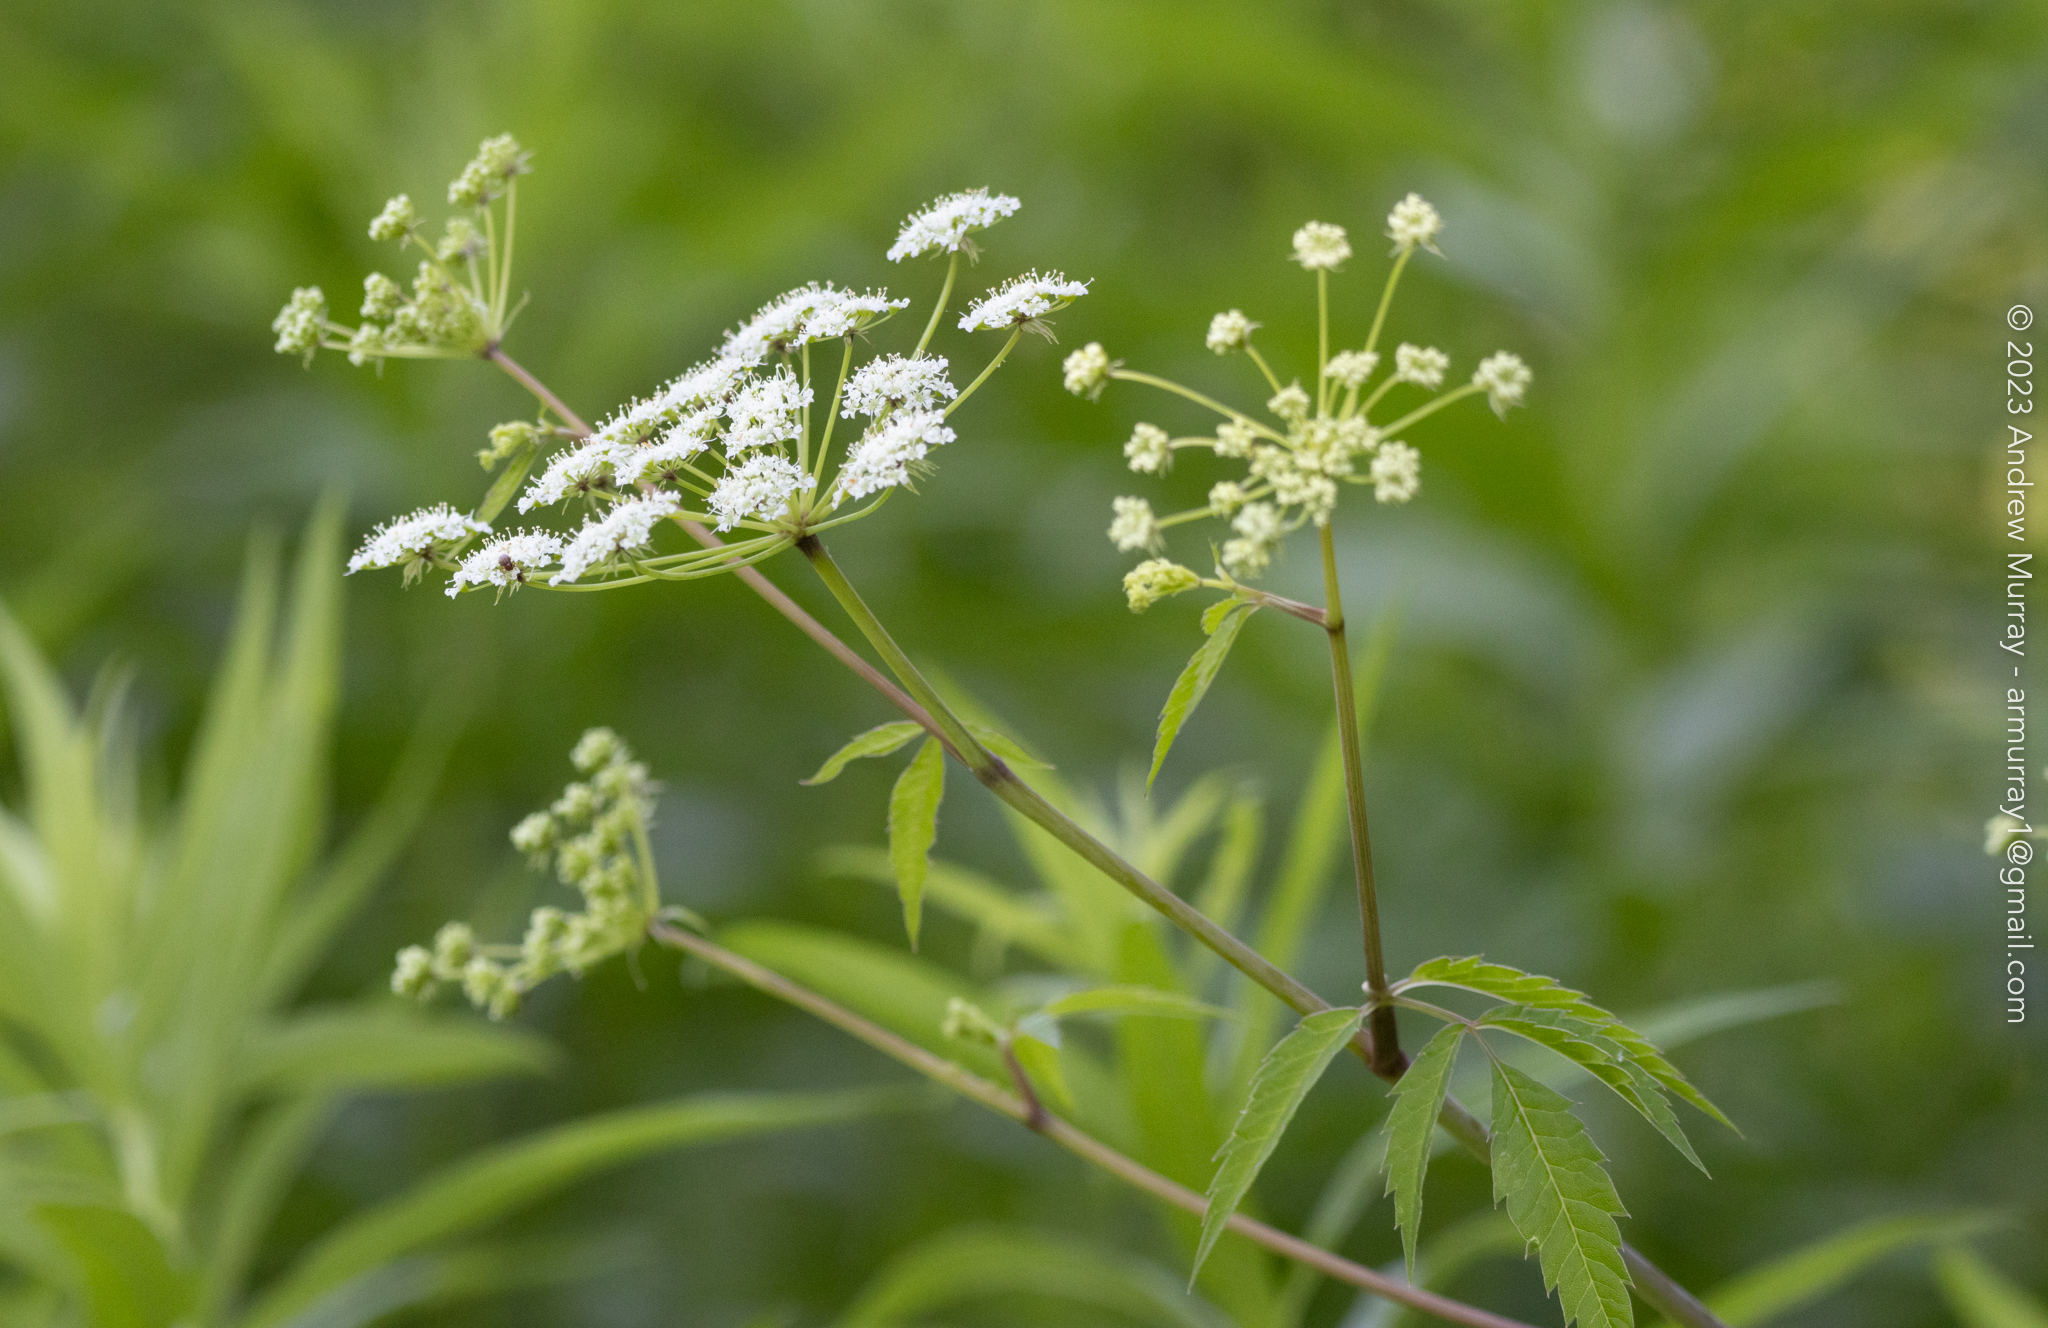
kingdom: Plantae
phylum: Tracheophyta
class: Magnoliopsida
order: Apiales
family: Apiaceae
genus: Cicuta
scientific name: Cicuta maculata
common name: Spotted cowbane
